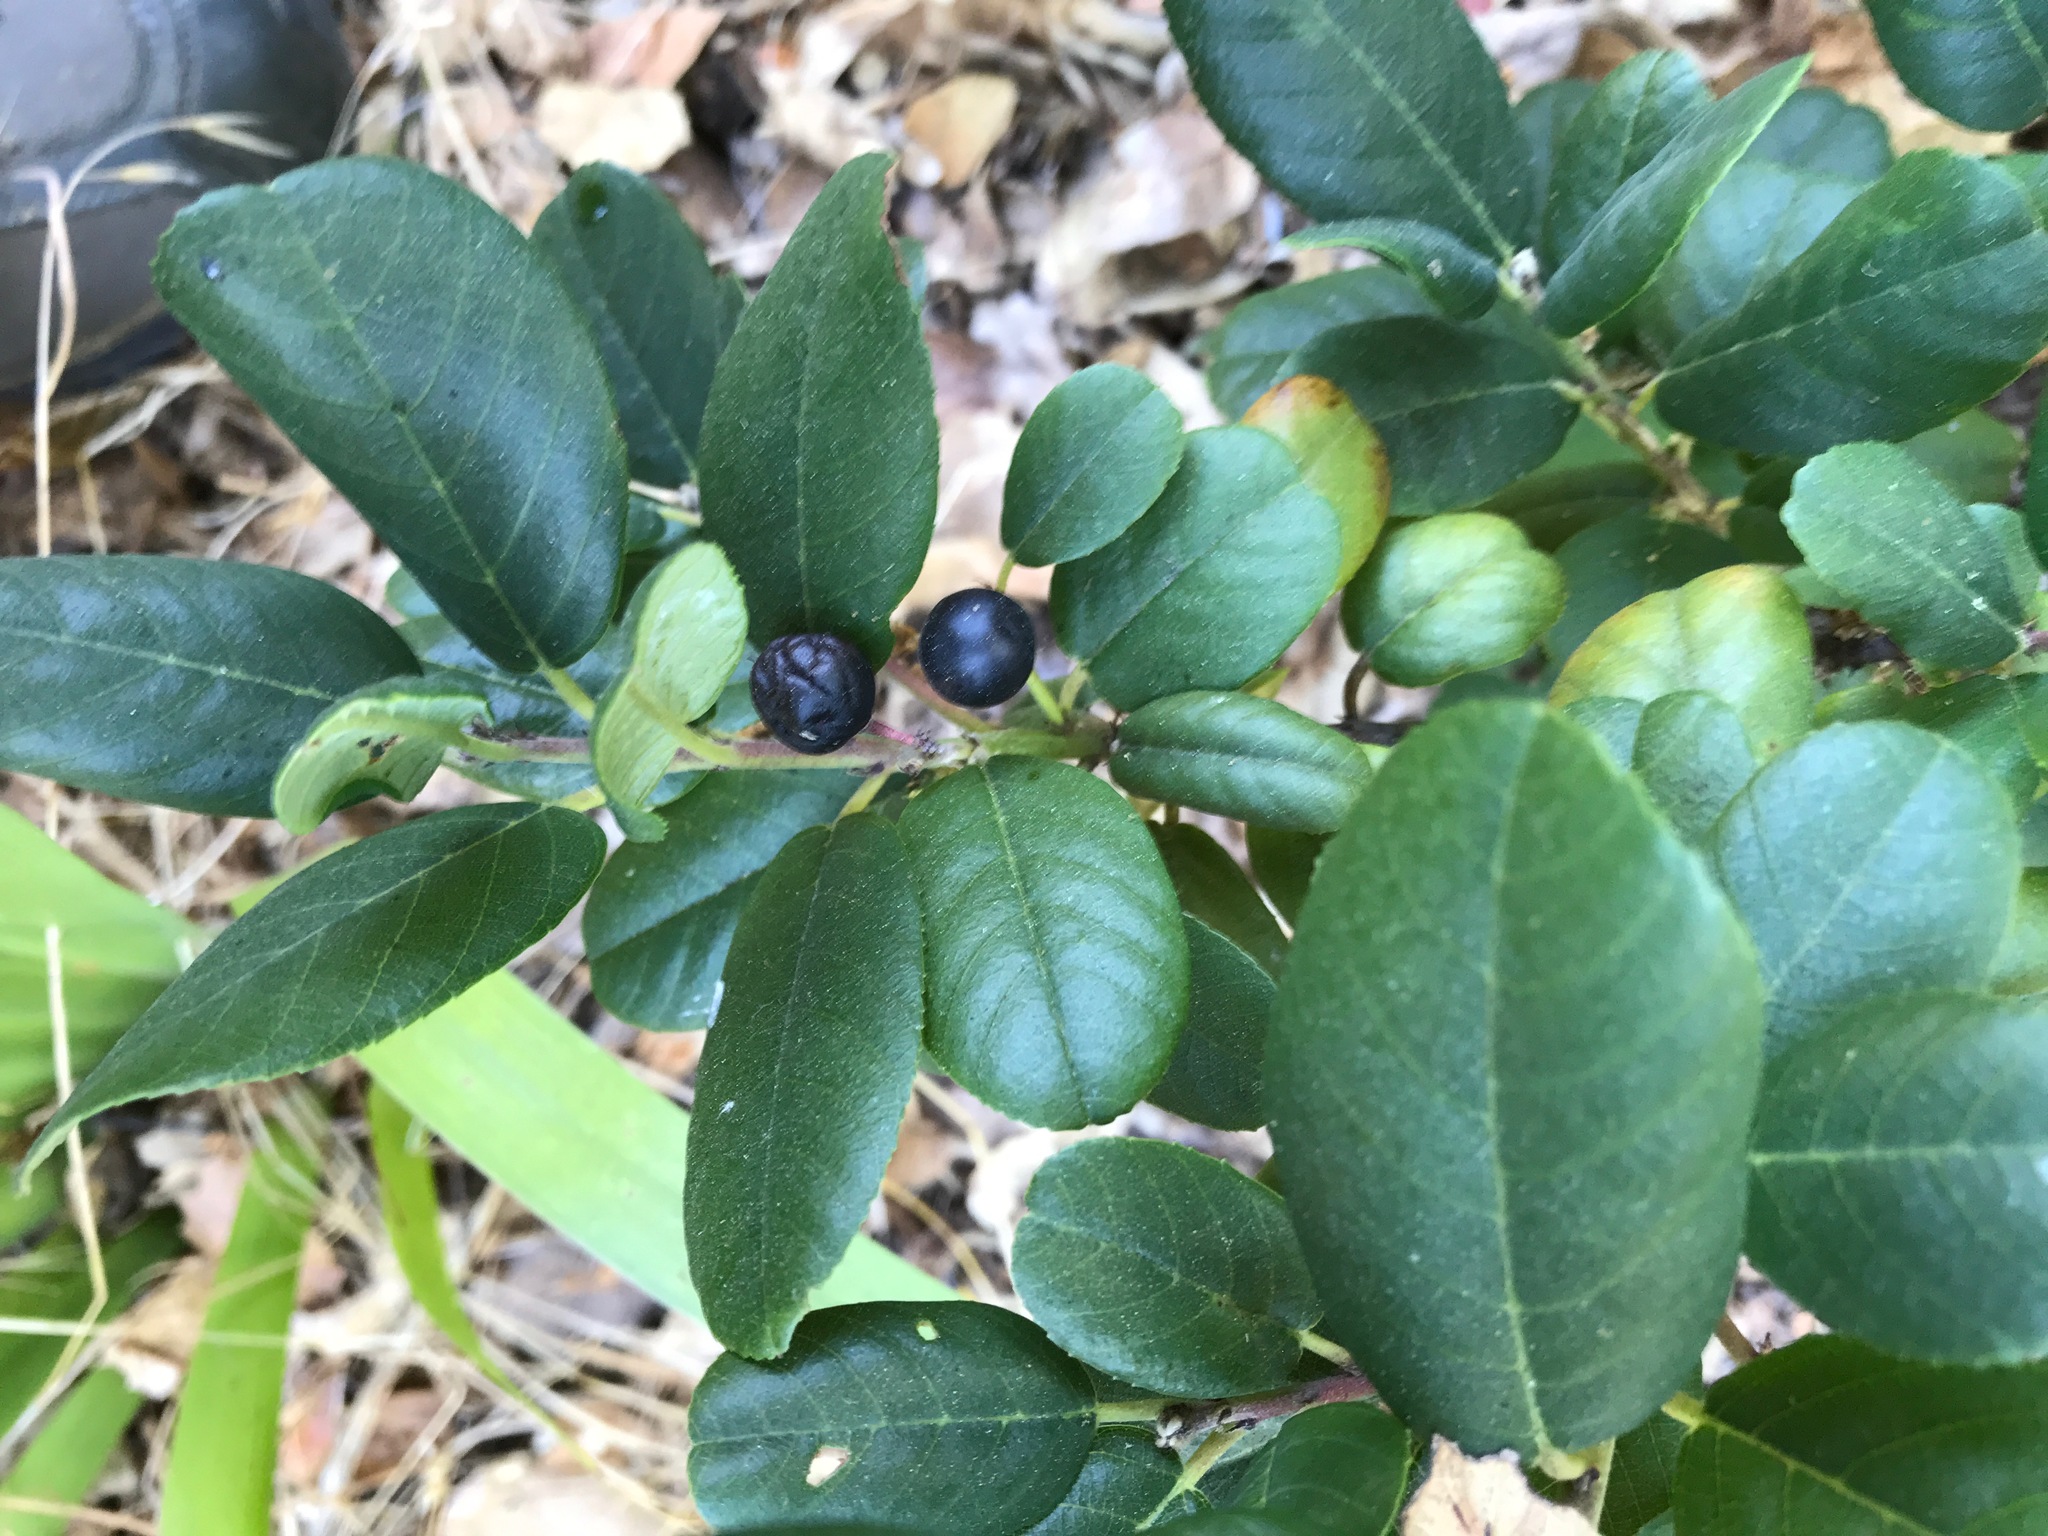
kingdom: Plantae
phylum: Tracheophyta
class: Magnoliopsida
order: Rosales
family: Rhamnaceae
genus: Frangula
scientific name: Frangula californica
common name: California buckthorn
